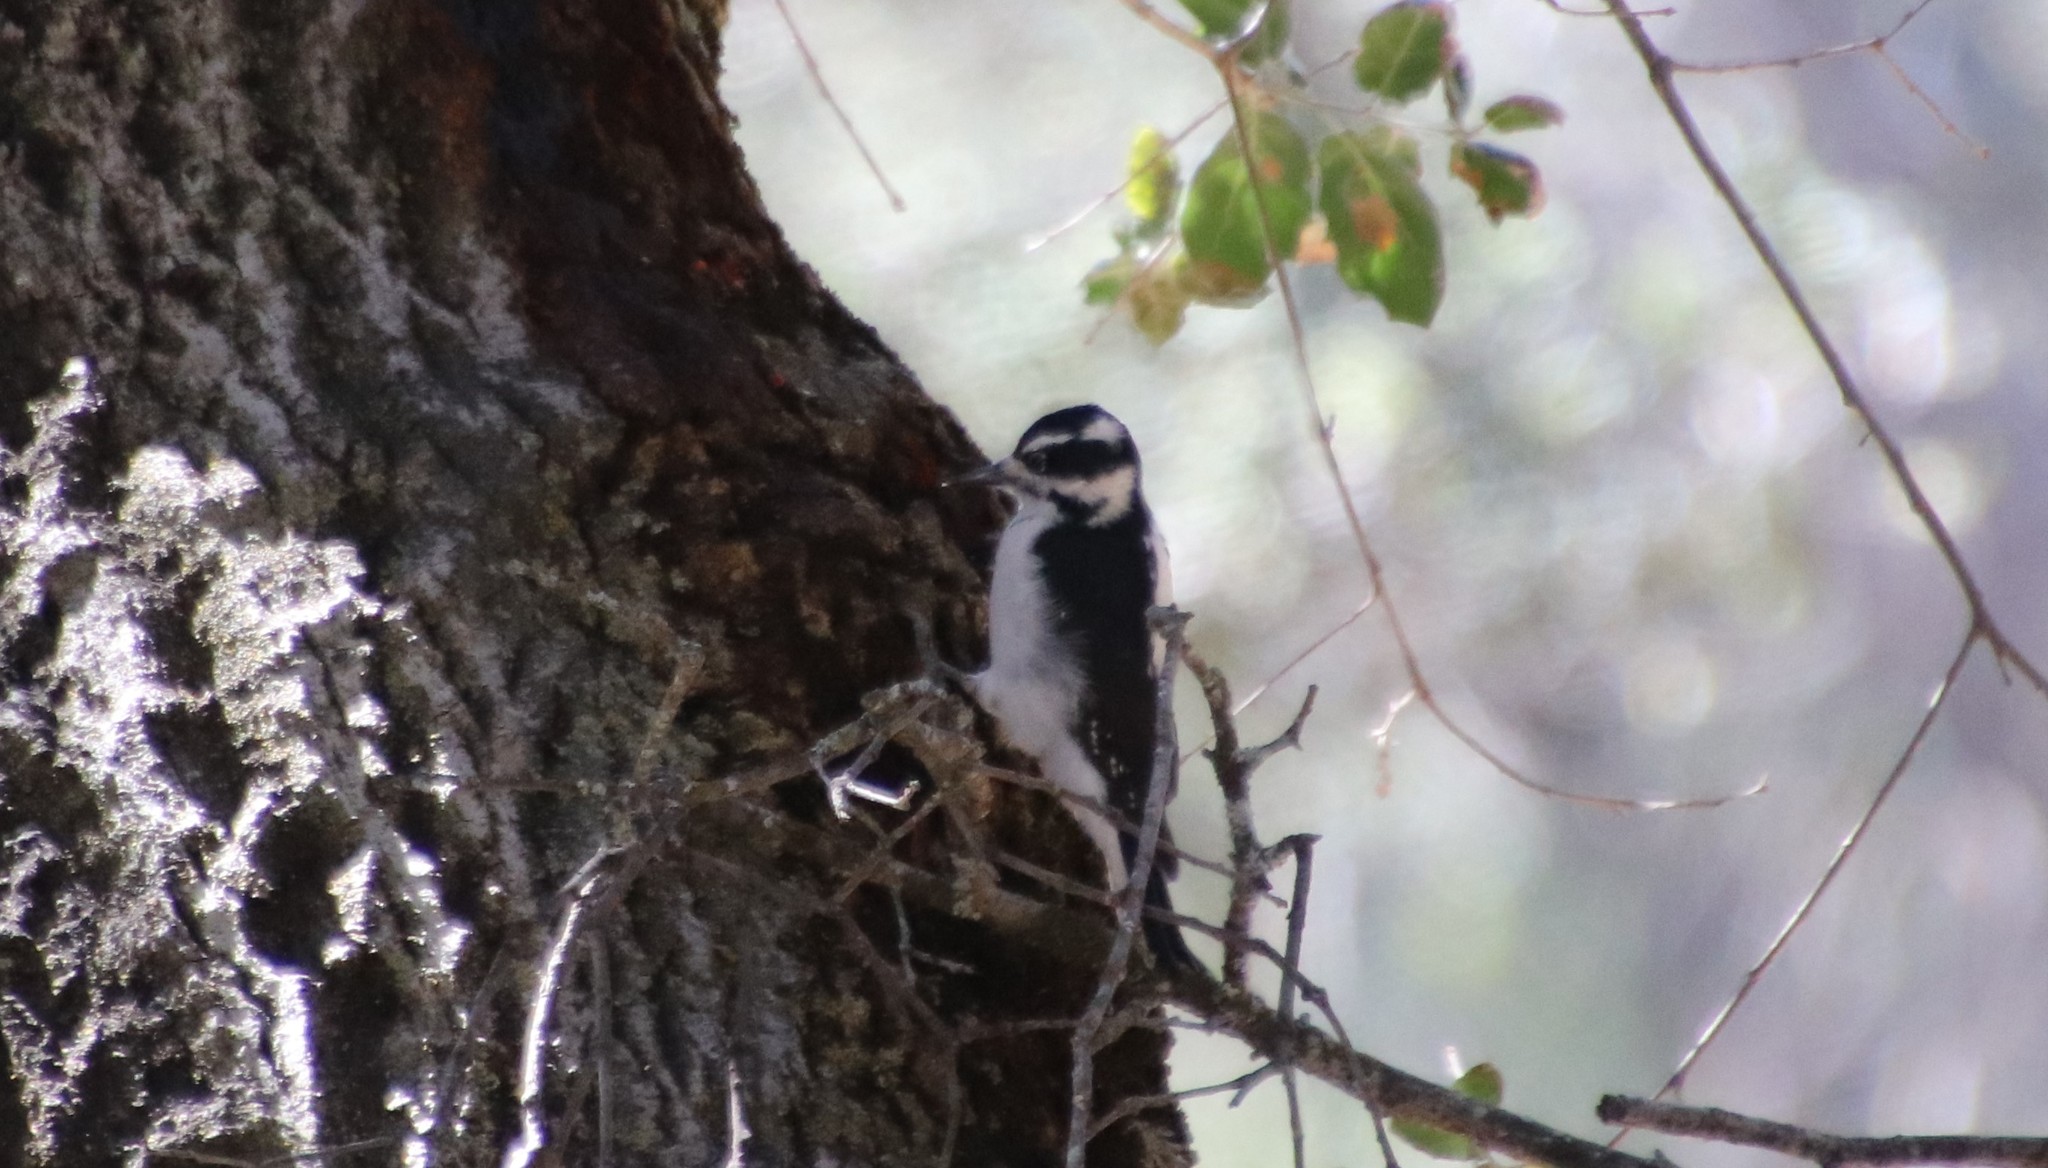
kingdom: Animalia
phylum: Chordata
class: Aves
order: Piciformes
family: Picidae
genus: Leuconotopicus
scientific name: Leuconotopicus villosus
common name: Hairy woodpecker
